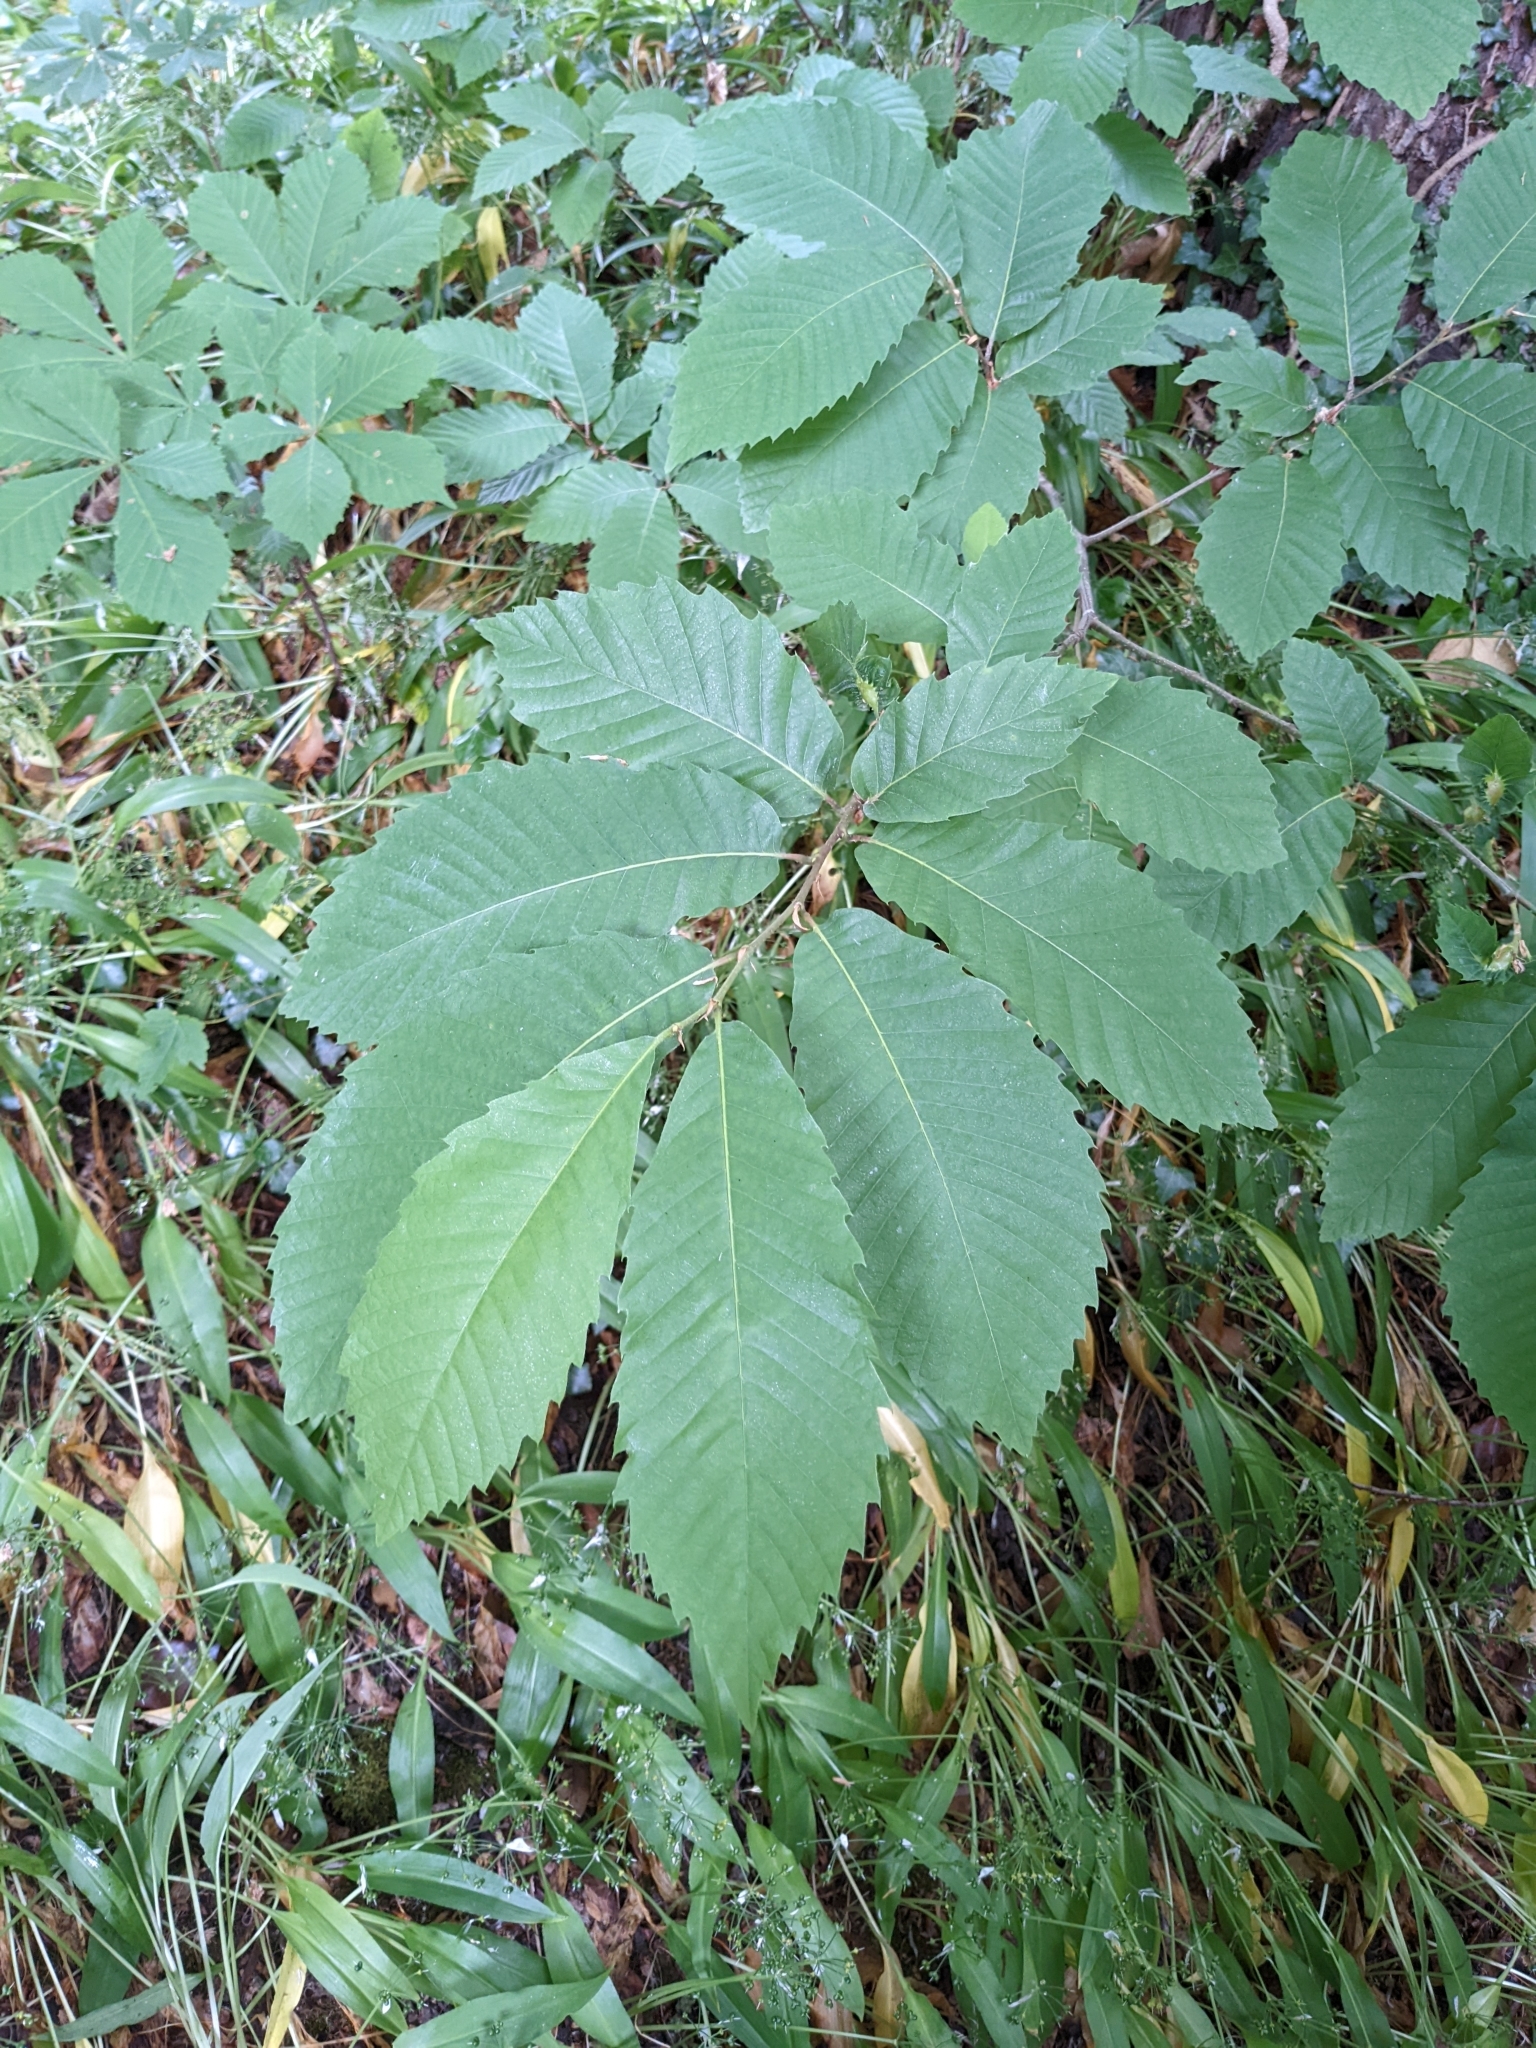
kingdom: Animalia
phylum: Arthropoda
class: Insecta
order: Hymenoptera
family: Cynipidae
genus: Dryocosmus
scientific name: Dryocosmus kuriphilus
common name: Asian chestnut gall wasp
